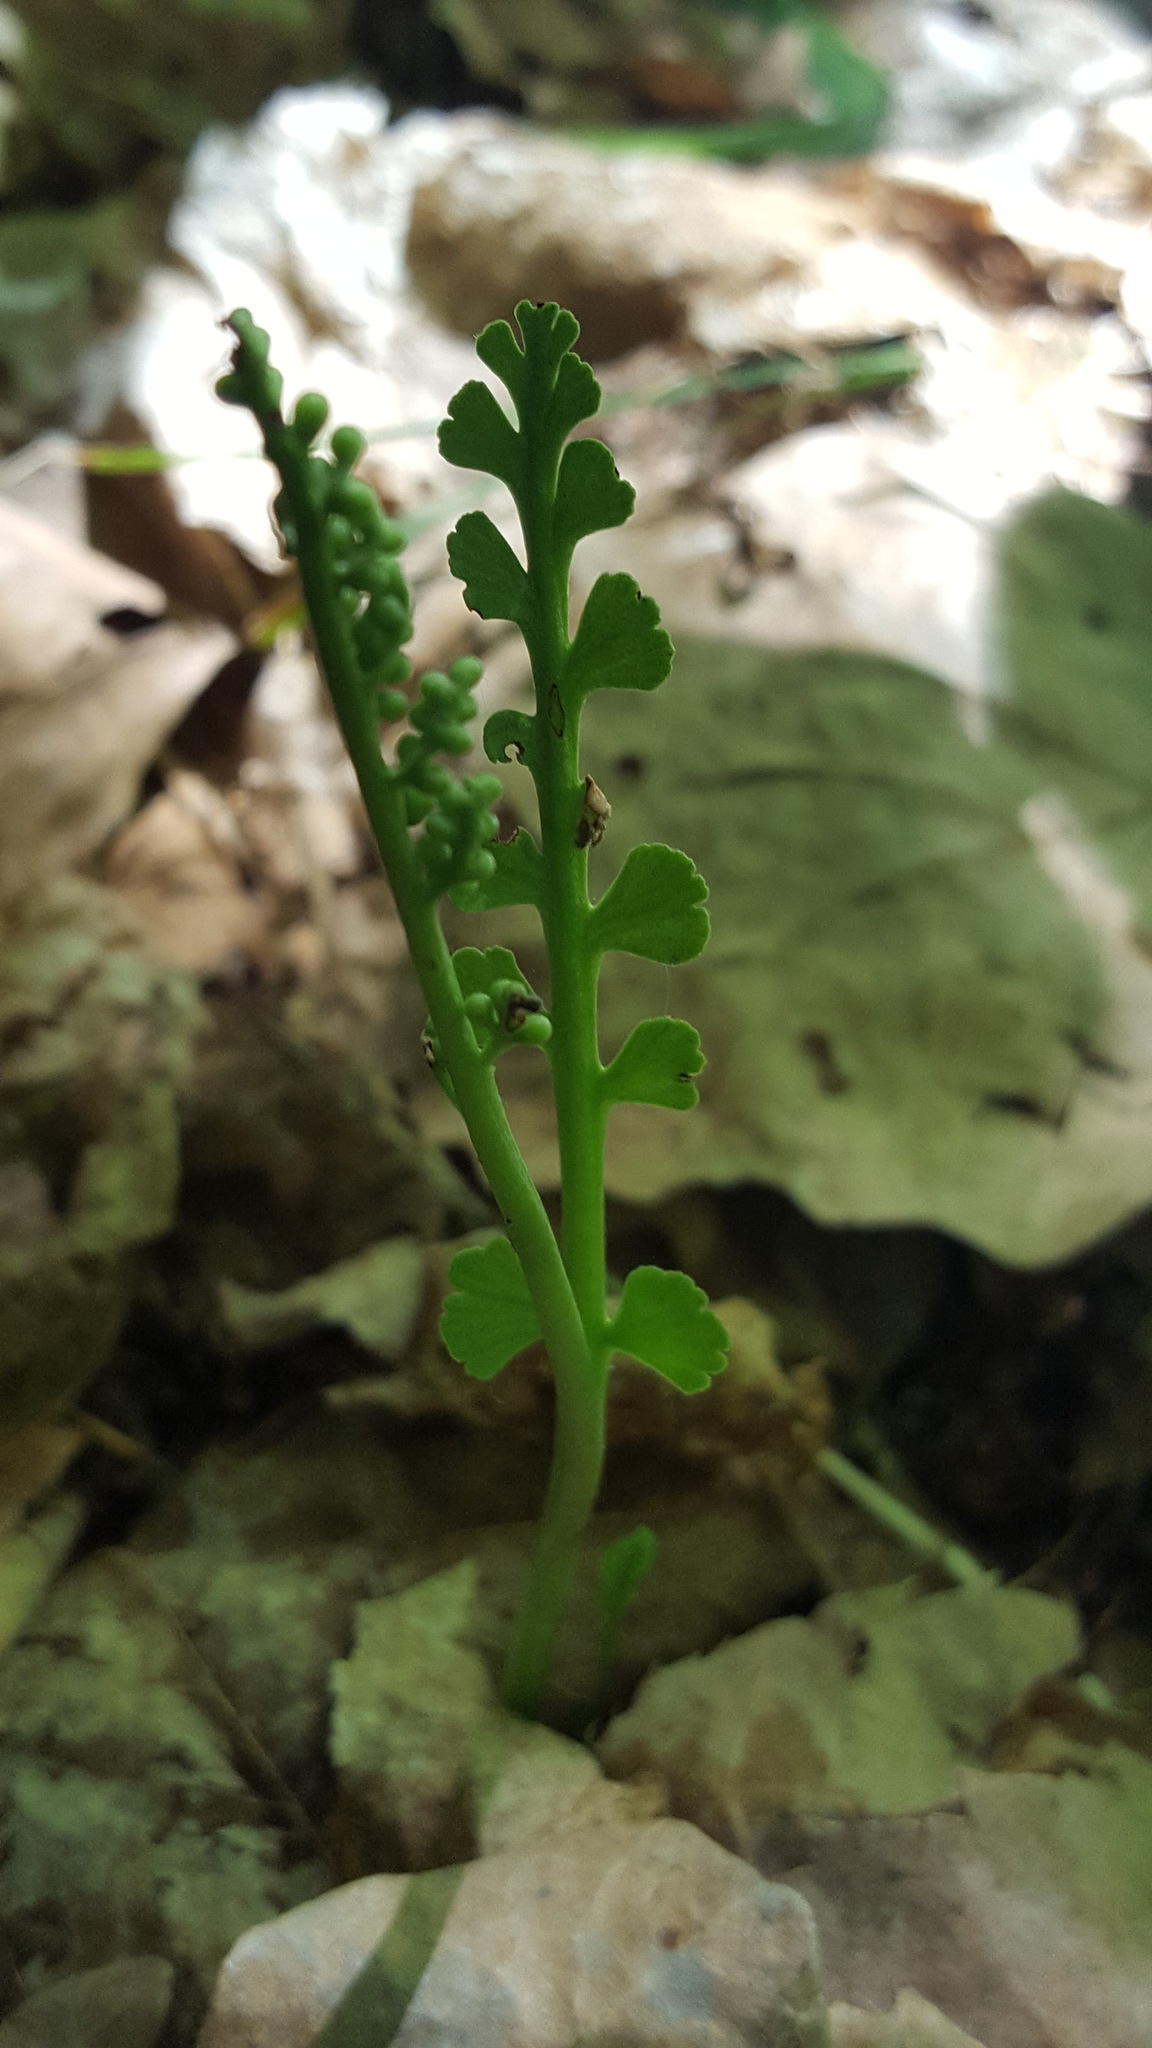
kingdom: Plantae
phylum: Tracheophyta
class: Polypodiopsida
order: Ophioglossales
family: Ophioglossaceae
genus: Botrychium
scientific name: Botrychium minganense
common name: Mingan grapefern
